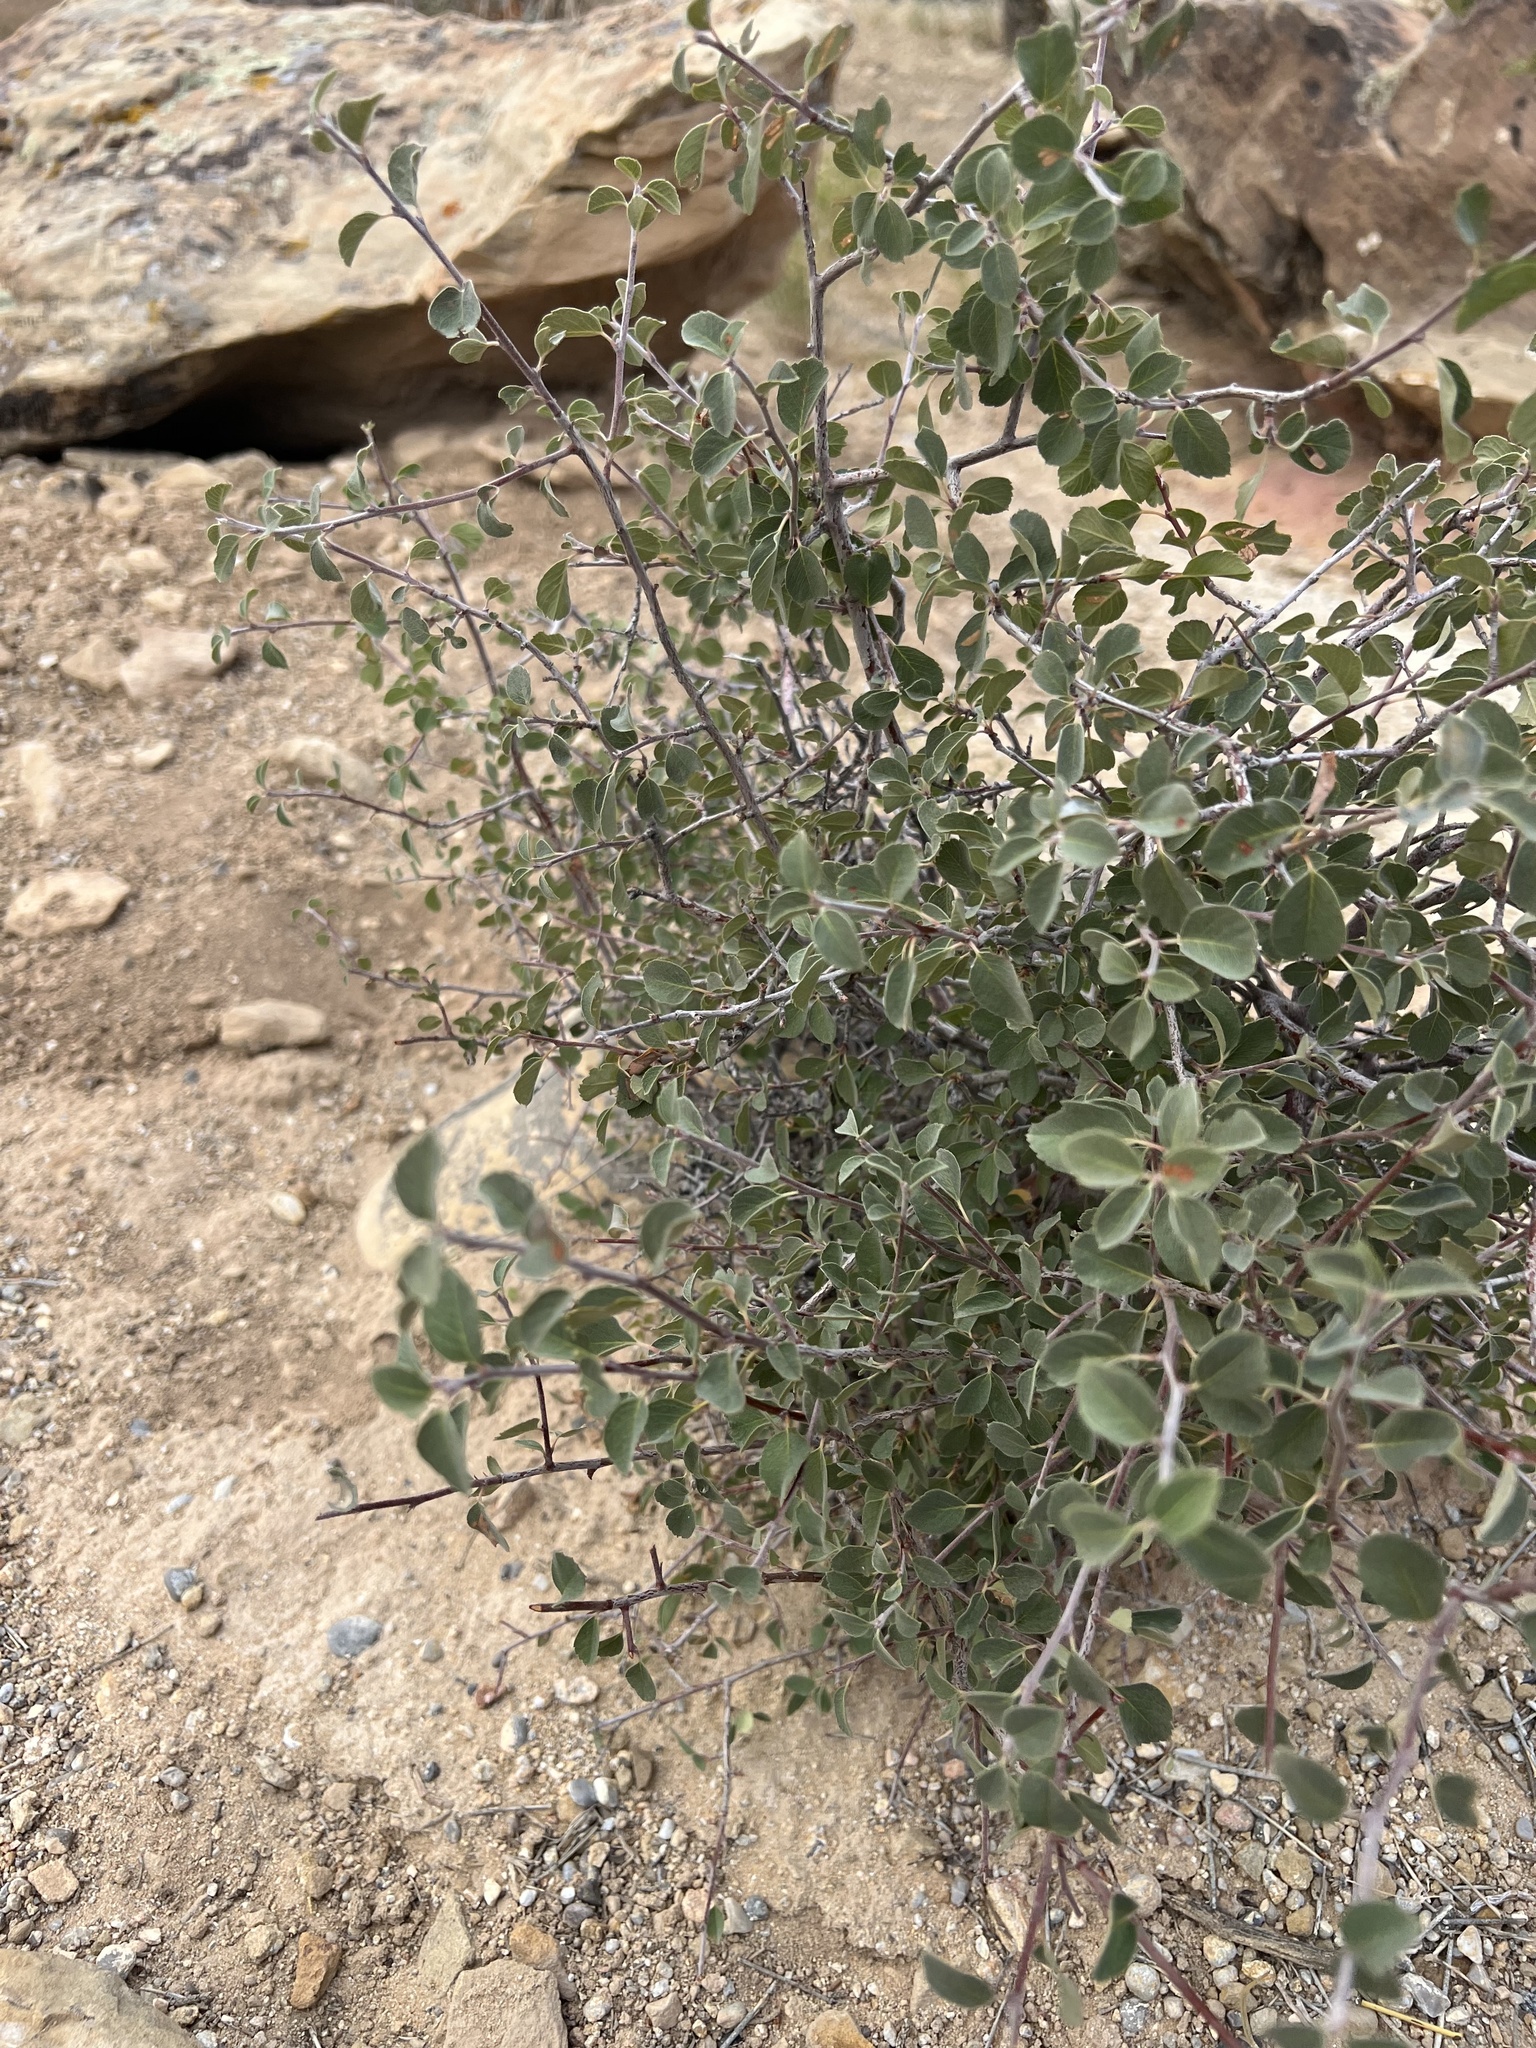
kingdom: Plantae
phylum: Tracheophyta
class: Magnoliopsida
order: Rosales
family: Rosaceae
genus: Amelanchier
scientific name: Amelanchier utahensis
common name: Utah serviceberry
